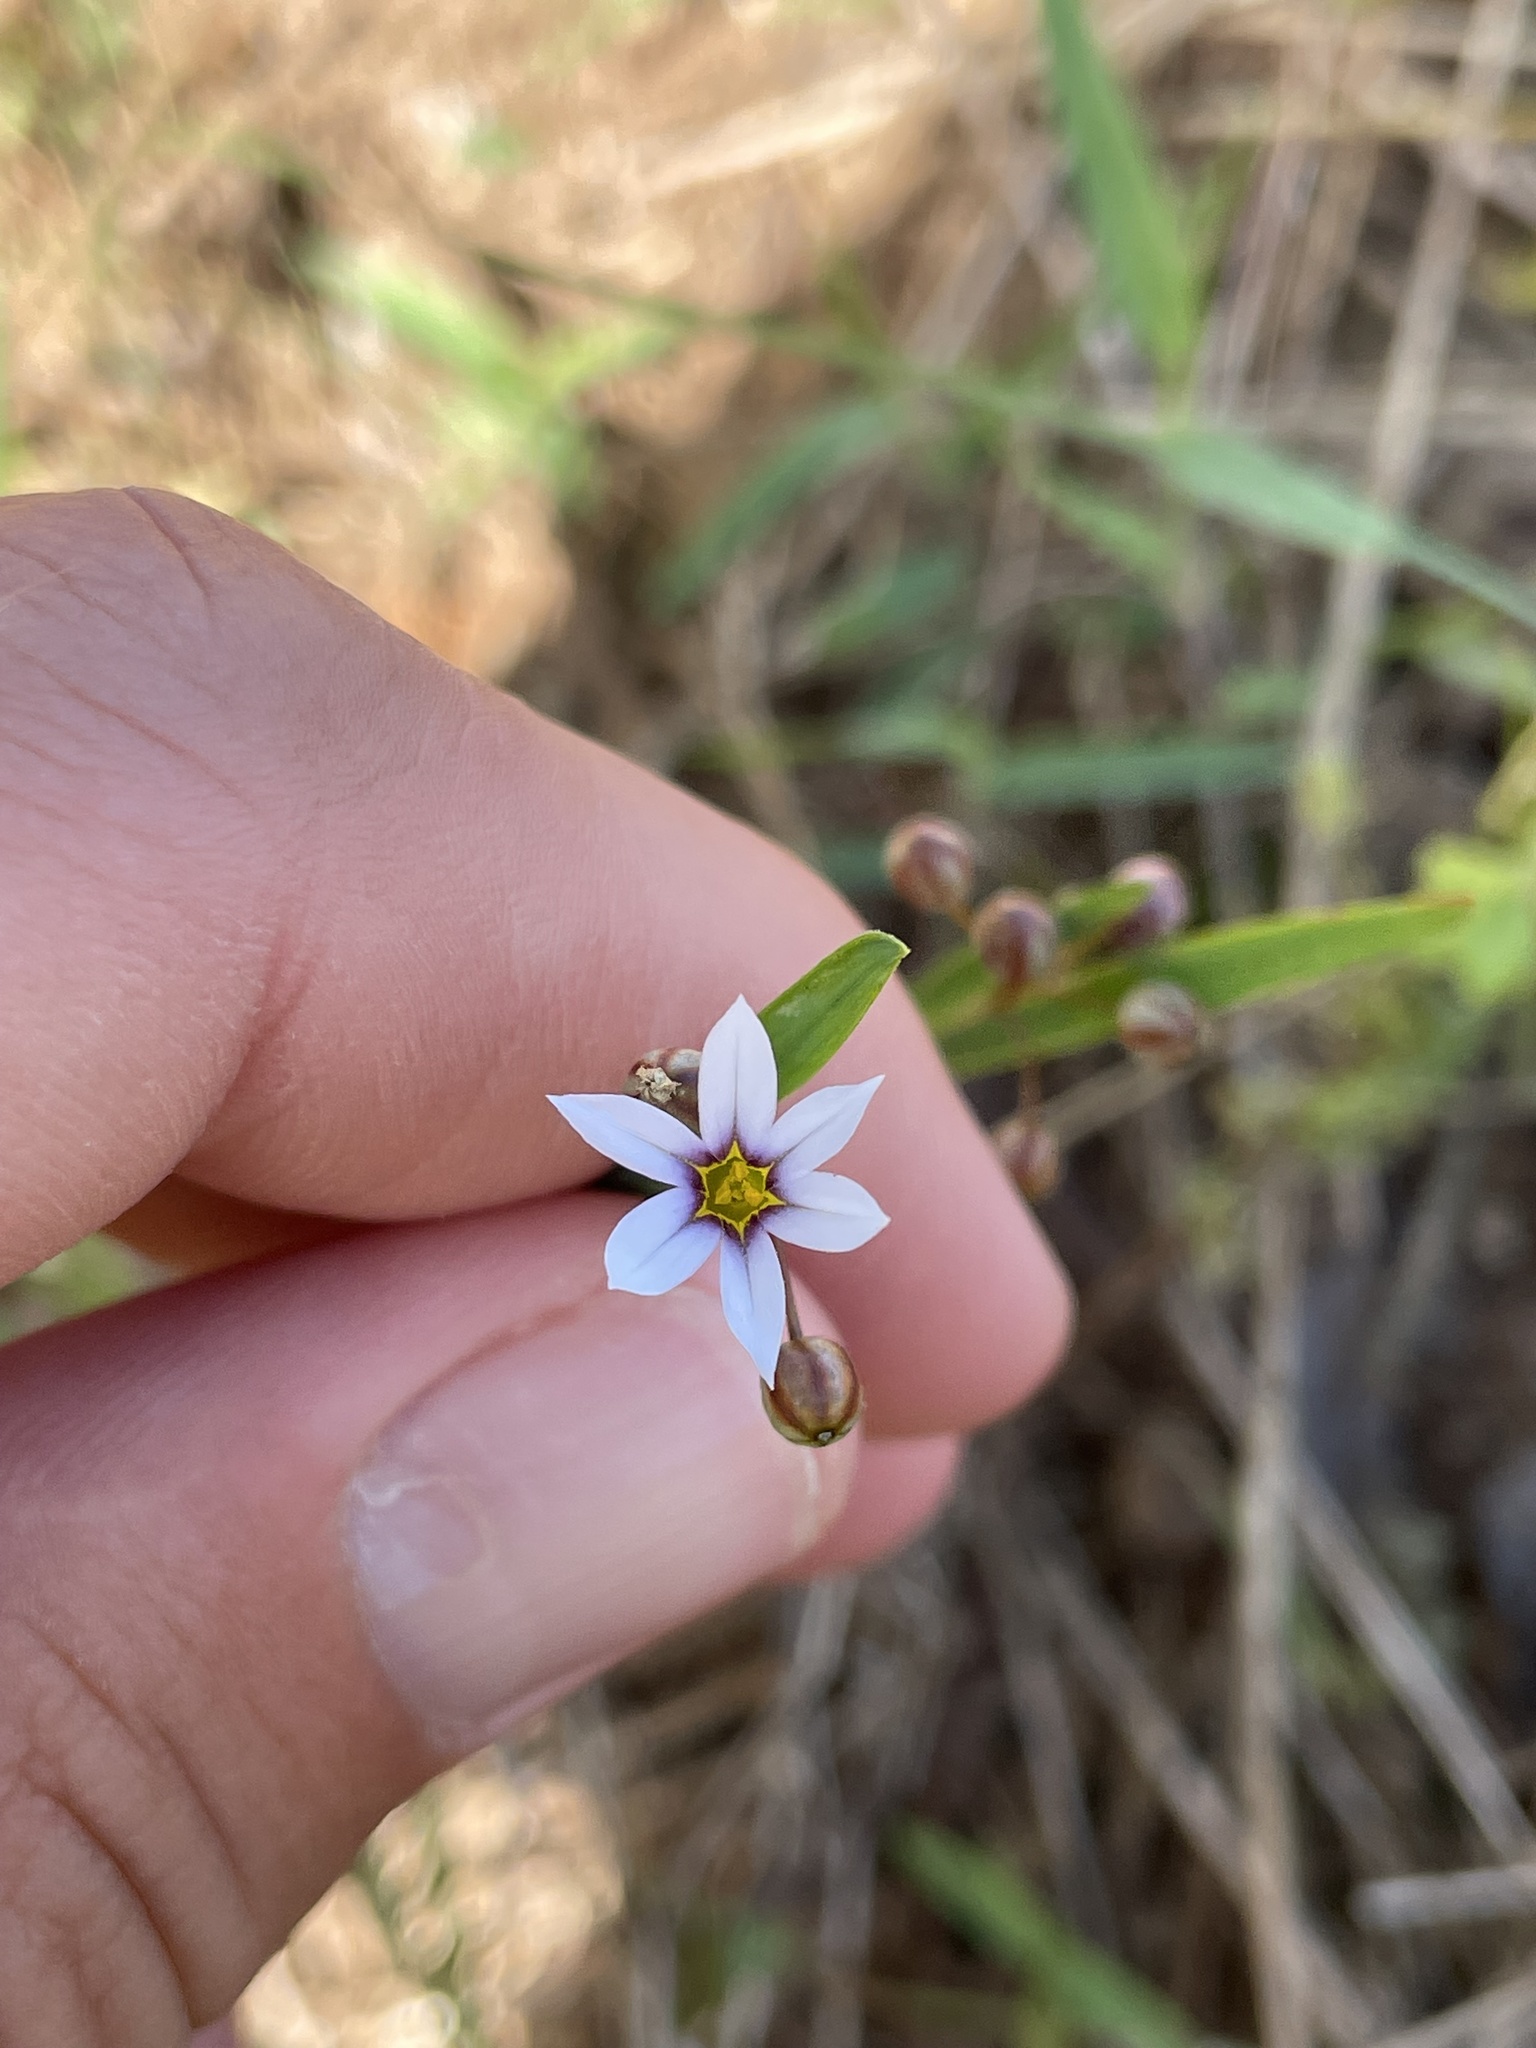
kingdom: Plantae
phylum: Tracheophyta
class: Liliopsida
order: Asparagales
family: Iridaceae
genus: Sisyrinchium
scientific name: Sisyrinchium micranthum
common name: Bermuda pigroot
